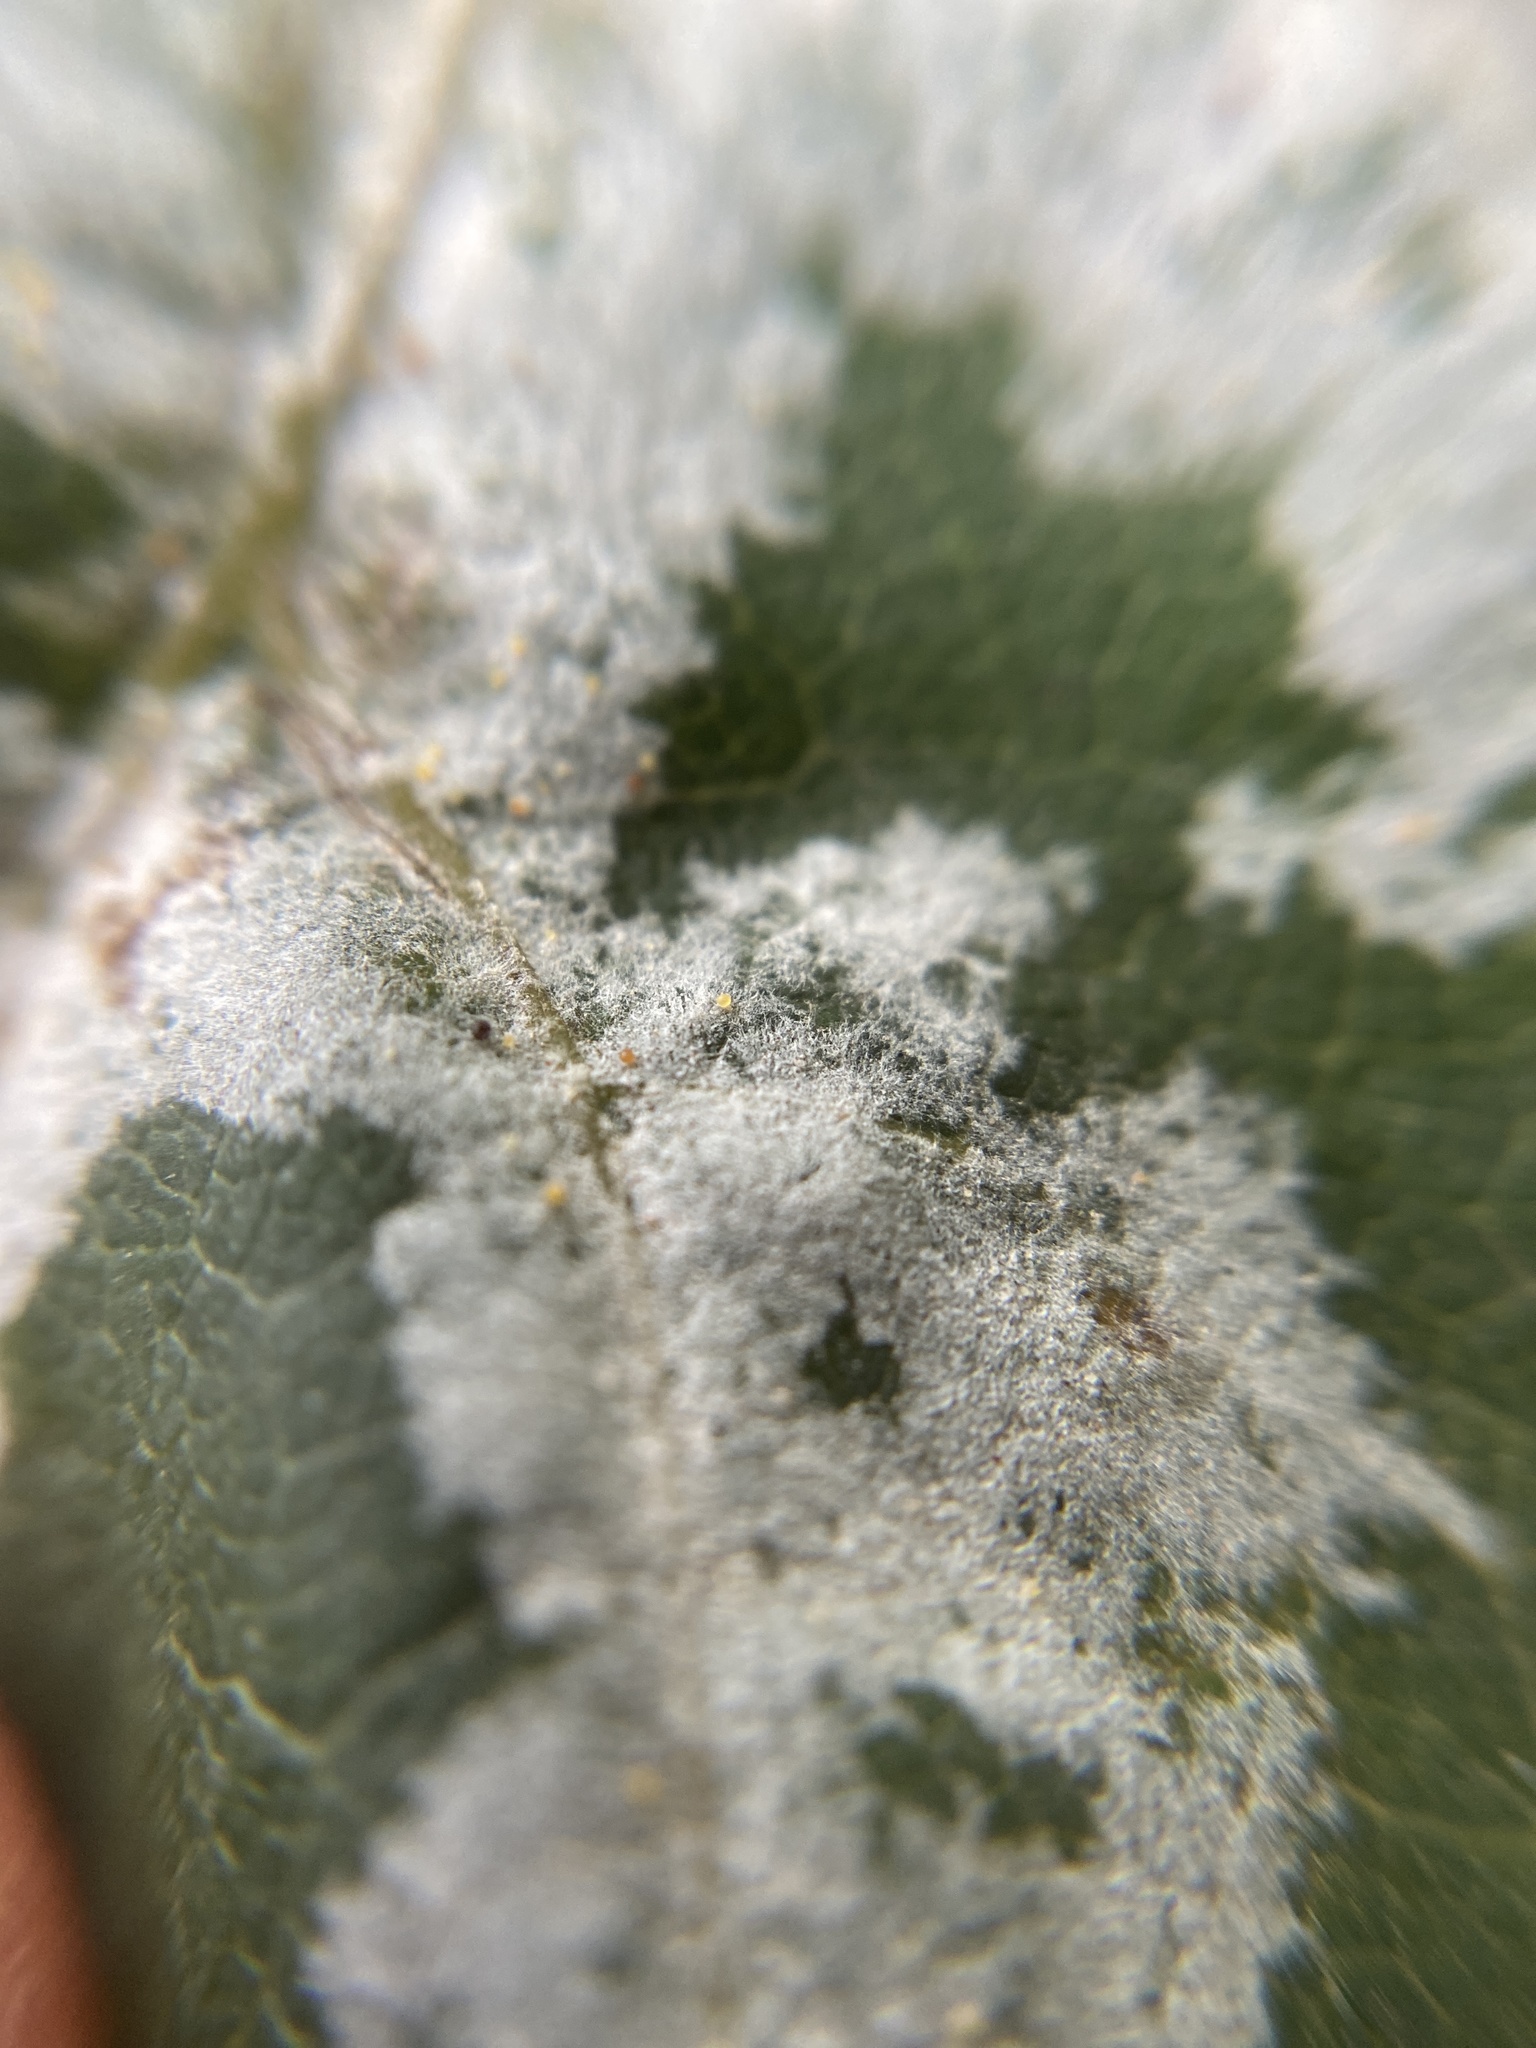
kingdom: Fungi
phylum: Ascomycota
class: Leotiomycetes
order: Helotiales
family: Erysiphaceae
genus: Sawadaea
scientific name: Sawadaea tulasnei
